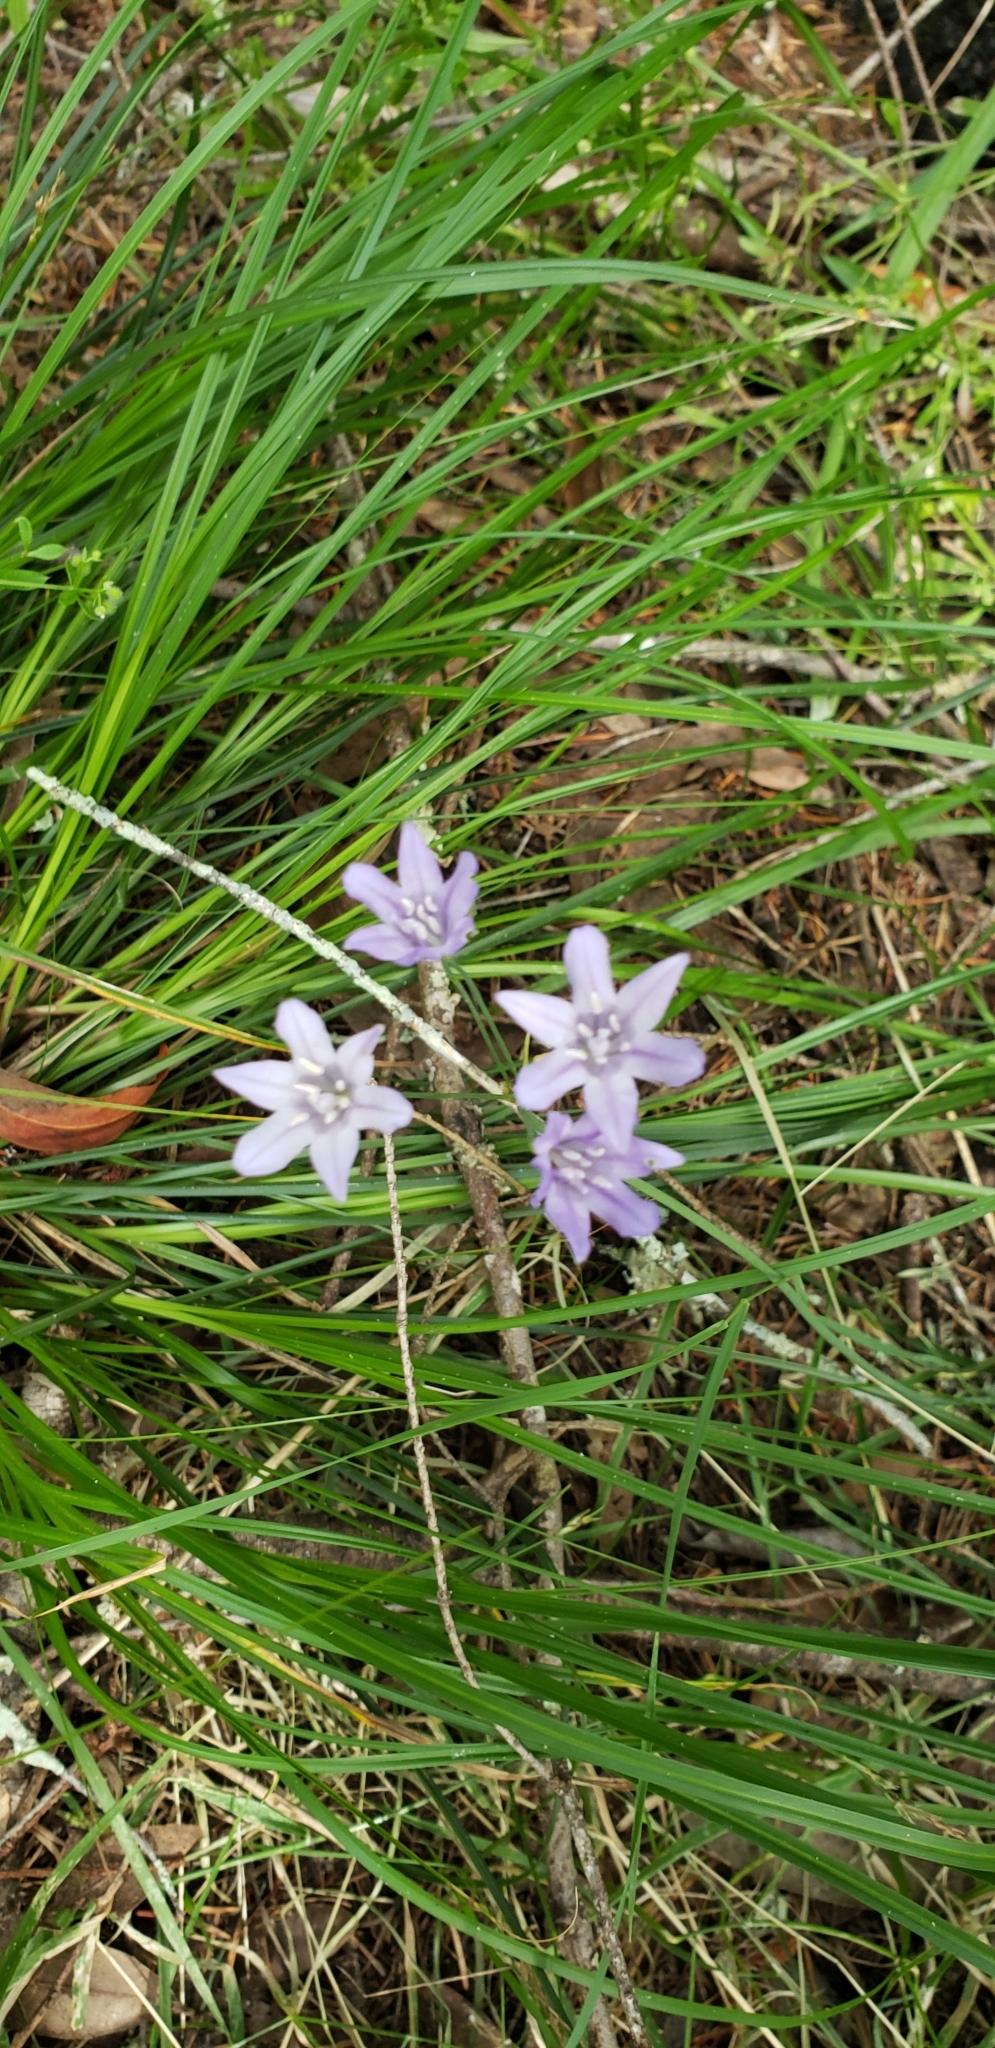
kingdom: Plantae
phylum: Tracheophyta
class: Liliopsida
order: Asparagales
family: Asparagaceae
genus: Triteleia
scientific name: Triteleia laxa
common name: Triplet-lily
